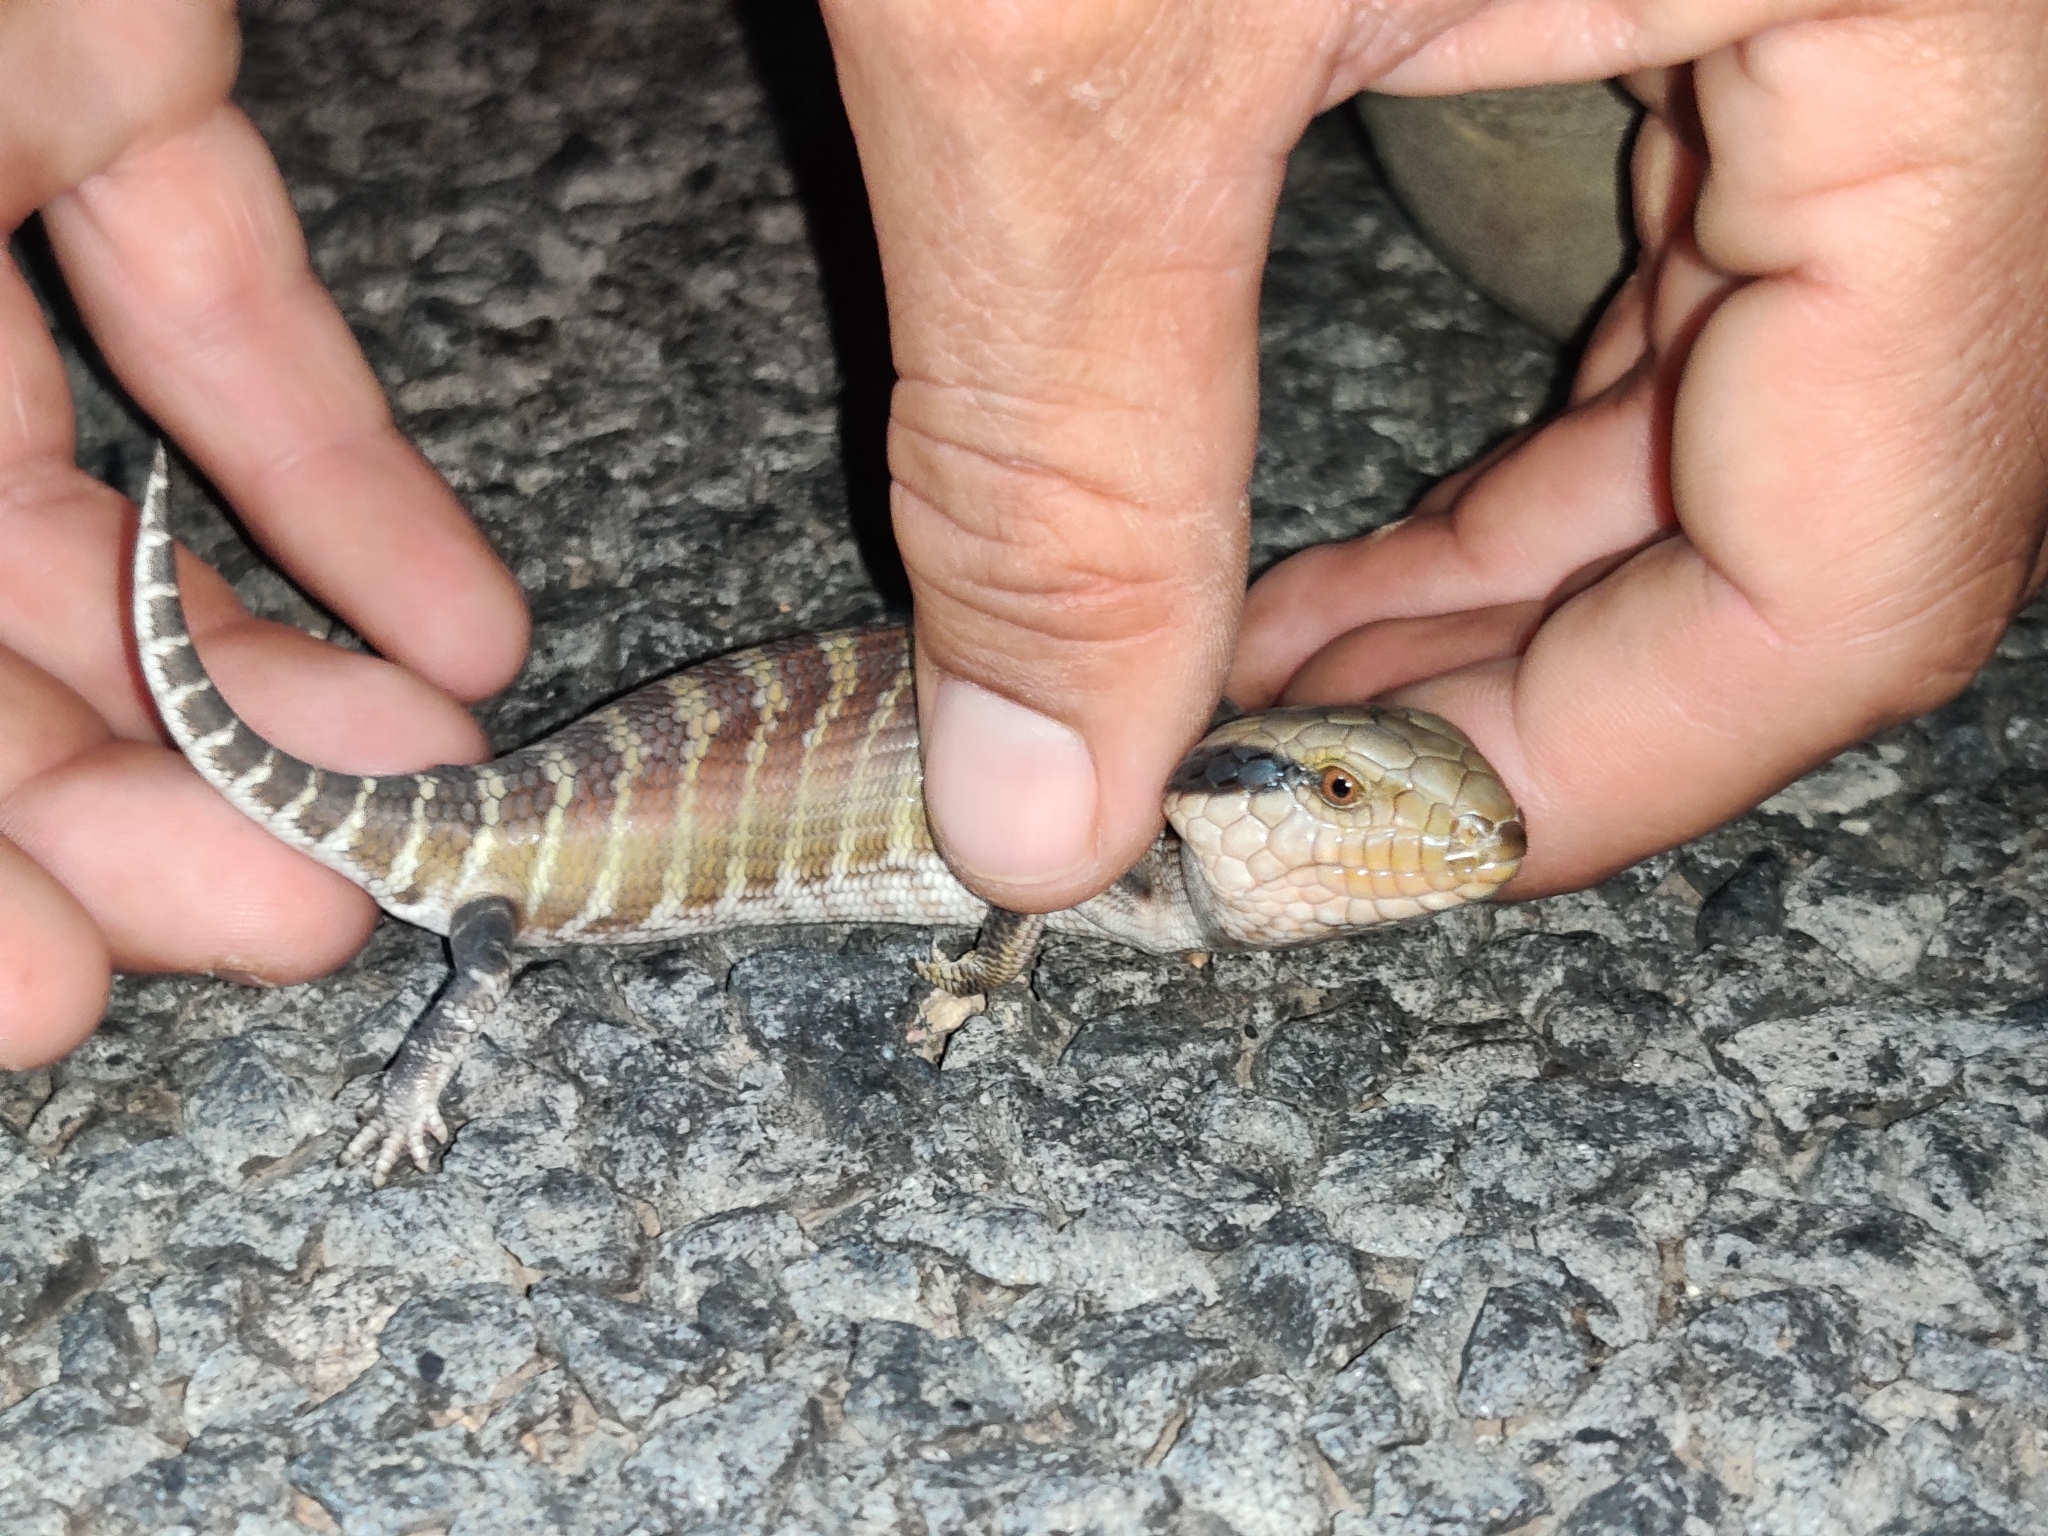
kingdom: Animalia
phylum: Chordata
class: Squamata
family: Scincidae
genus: Tiliqua
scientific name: Tiliqua multifasciata
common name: Centralian blue-tongued lizard
